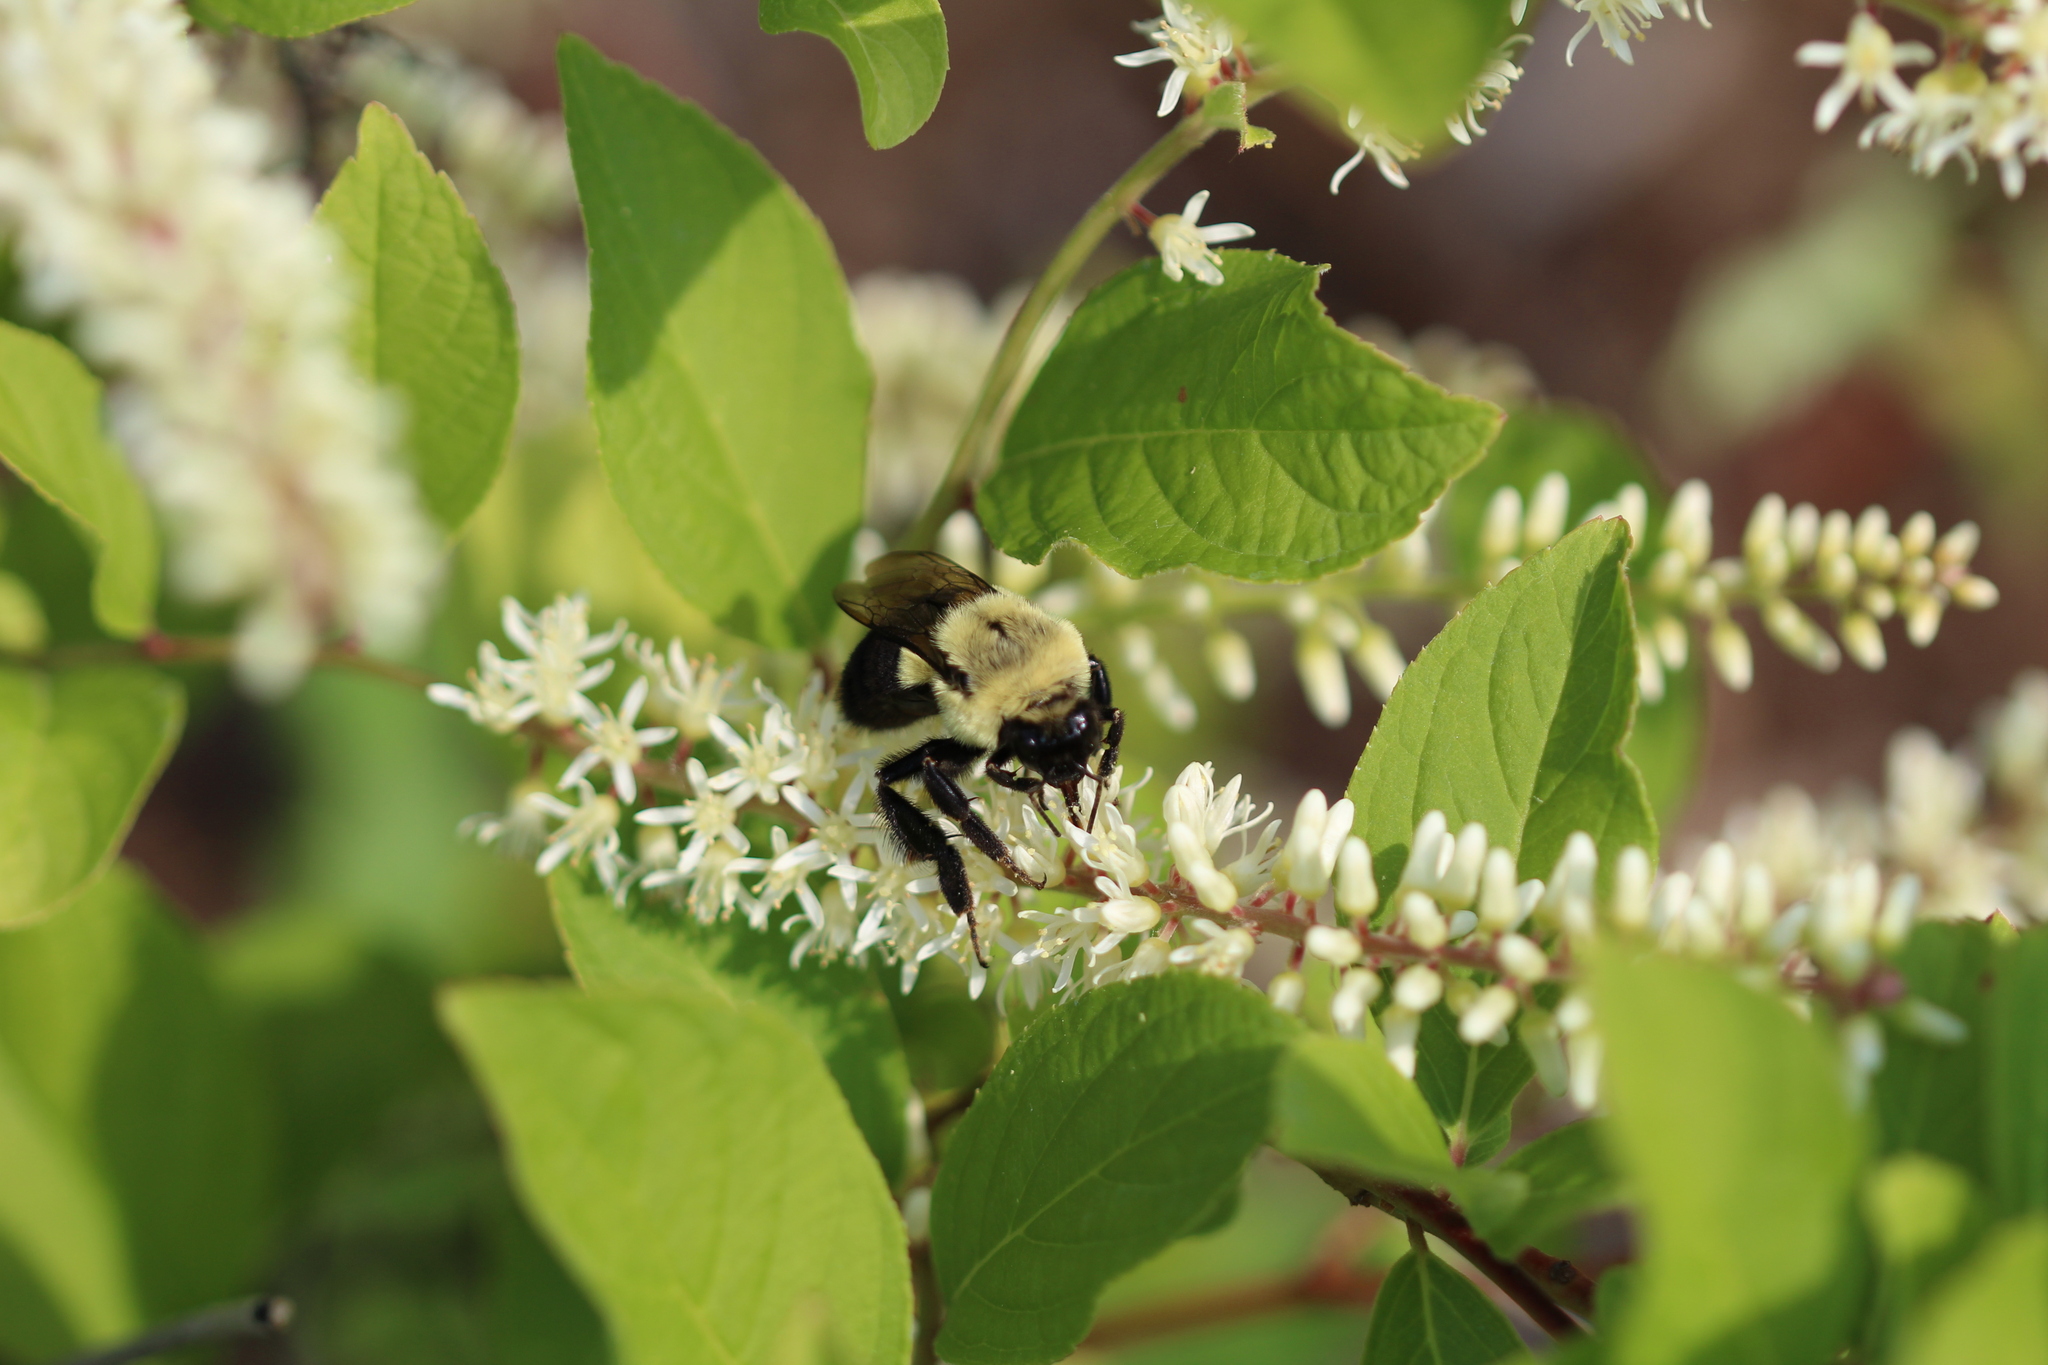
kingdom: Animalia
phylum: Arthropoda
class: Insecta
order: Hymenoptera
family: Apidae
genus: Bombus
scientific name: Bombus impatiens
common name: Common eastern bumble bee
